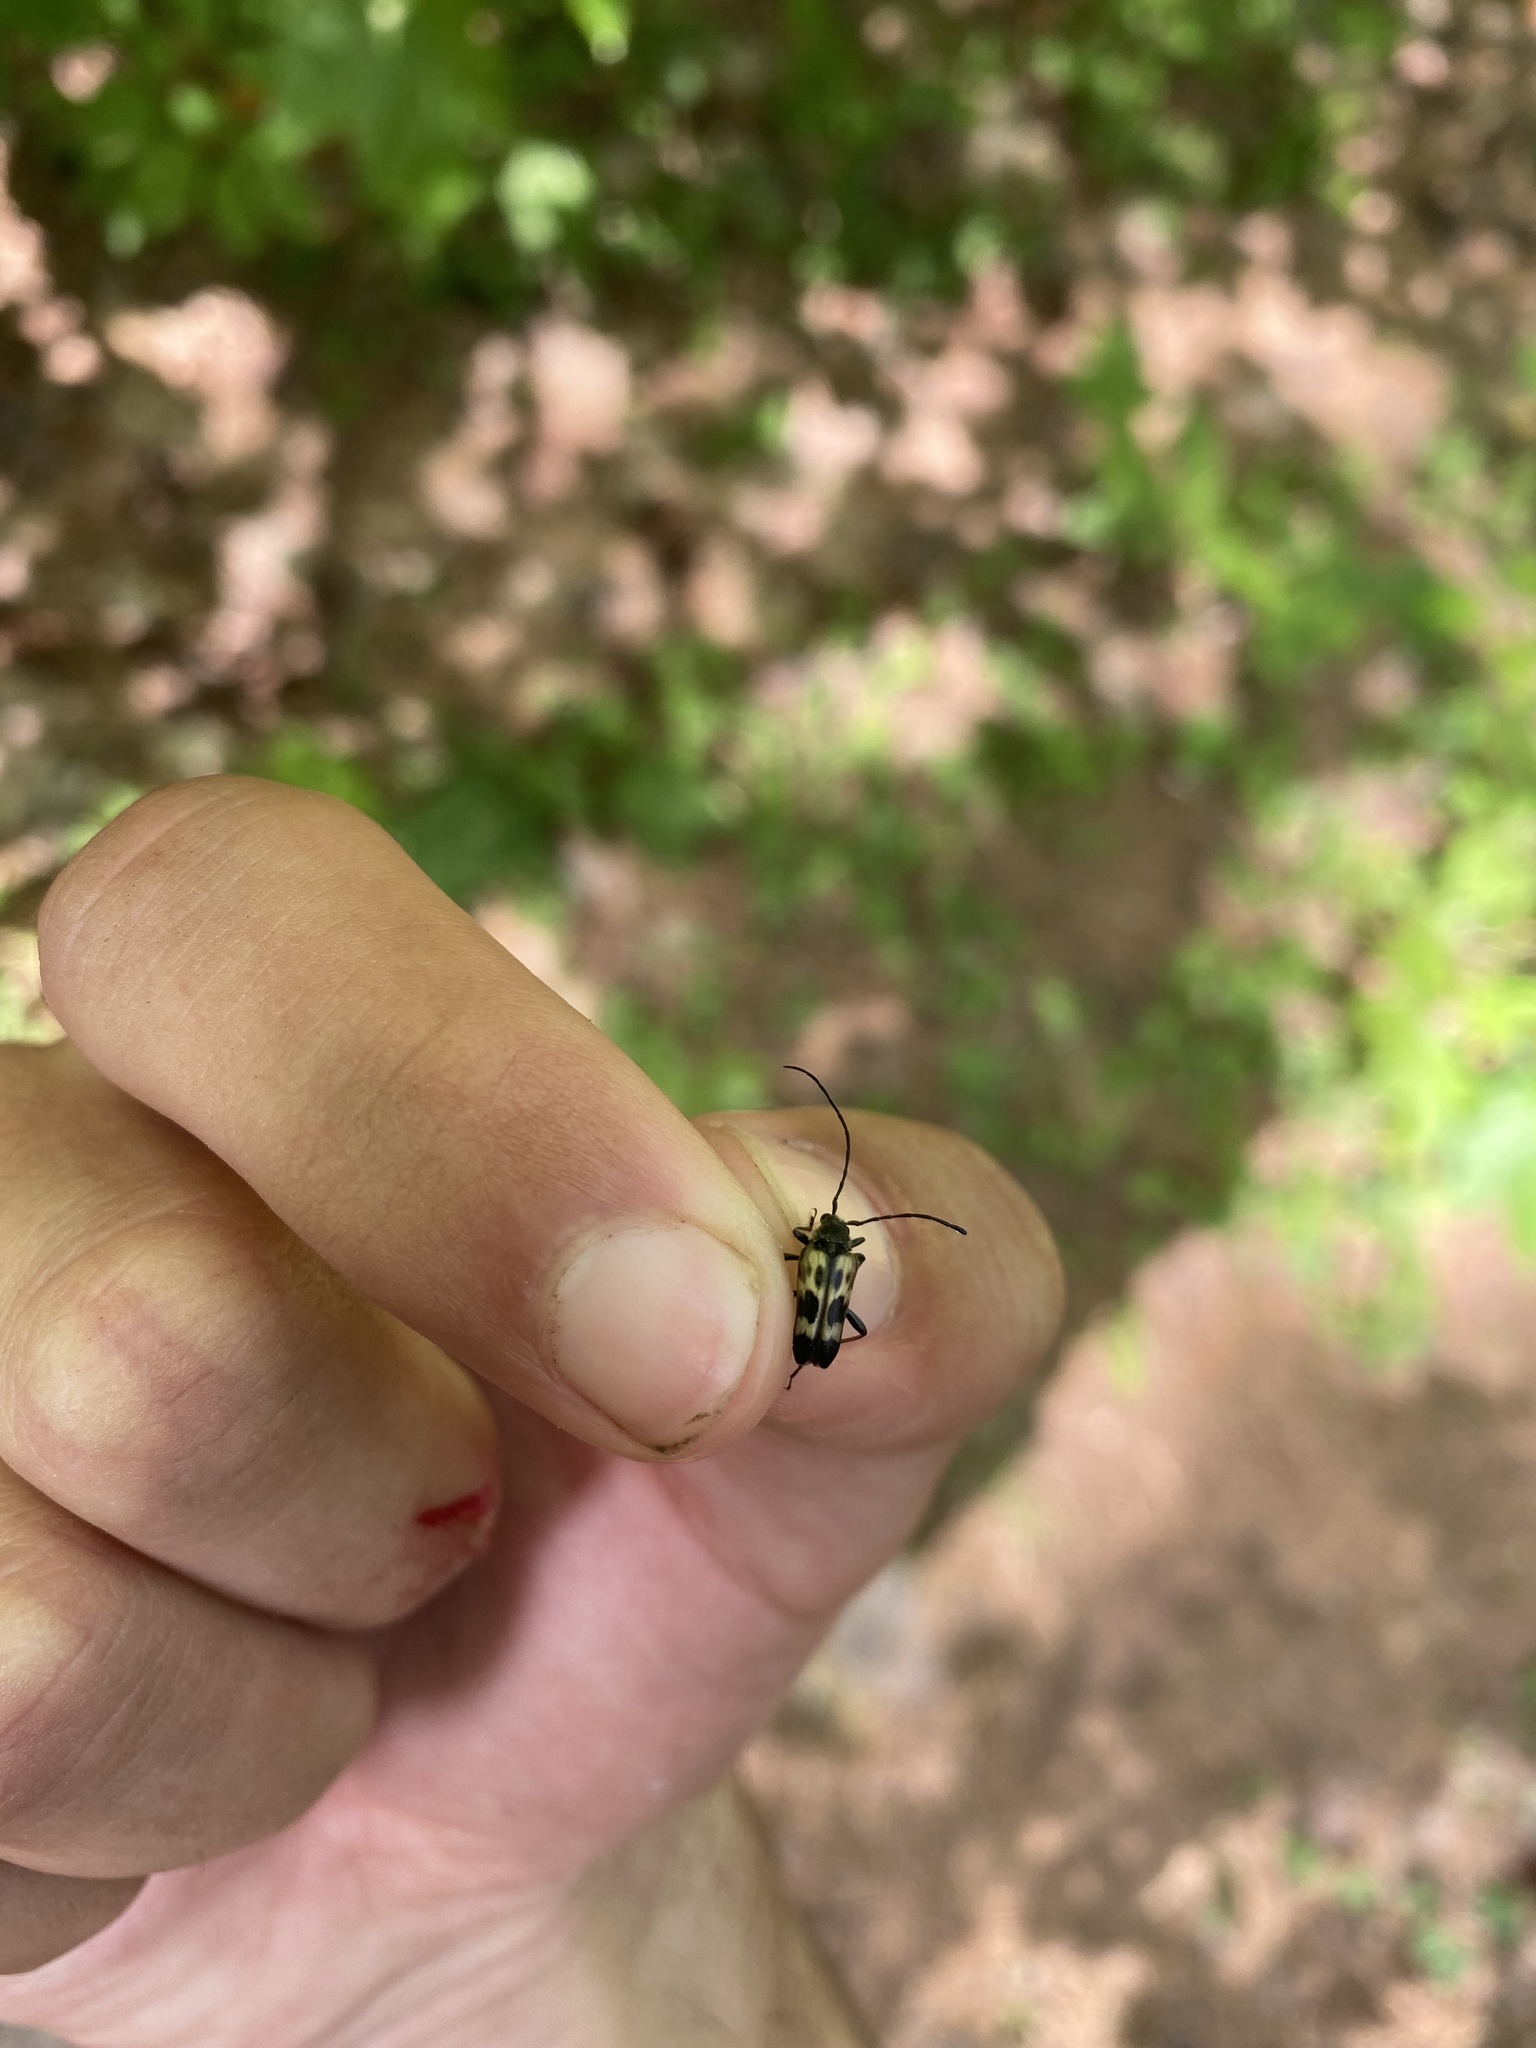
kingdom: Animalia
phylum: Arthropoda
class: Insecta
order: Coleoptera
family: Cerambycidae
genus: Judolia
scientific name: Judolia montivagans
